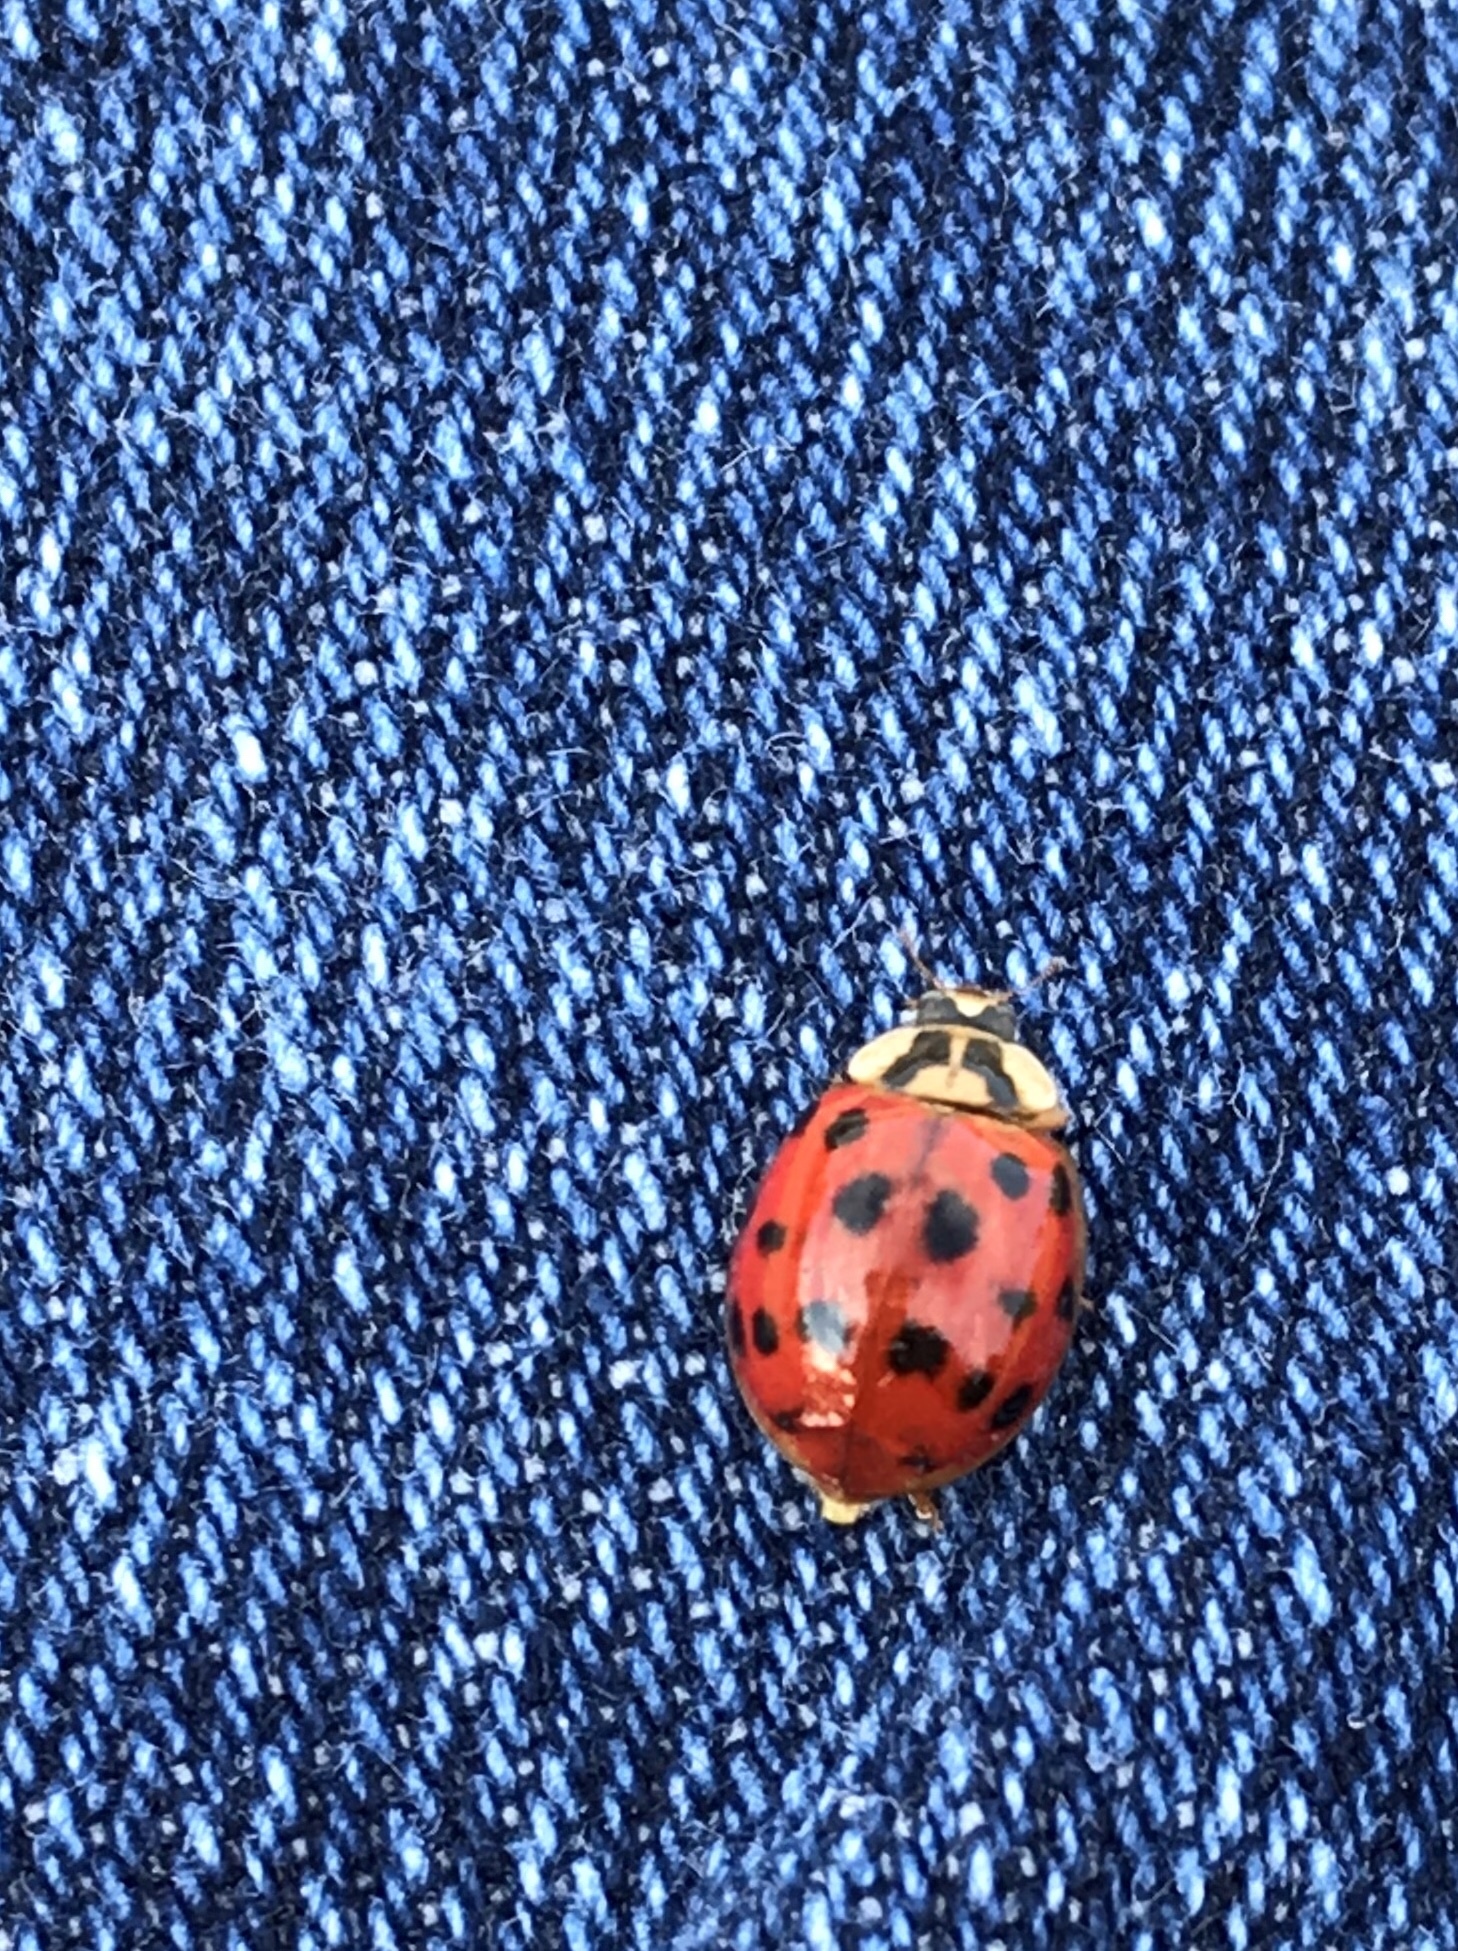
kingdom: Animalia
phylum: Arthropoda
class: Insecta
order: Coleoptera
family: Coccinellidae
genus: Harmonia
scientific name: Harmonia axyridis
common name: Harlequin ladybird
